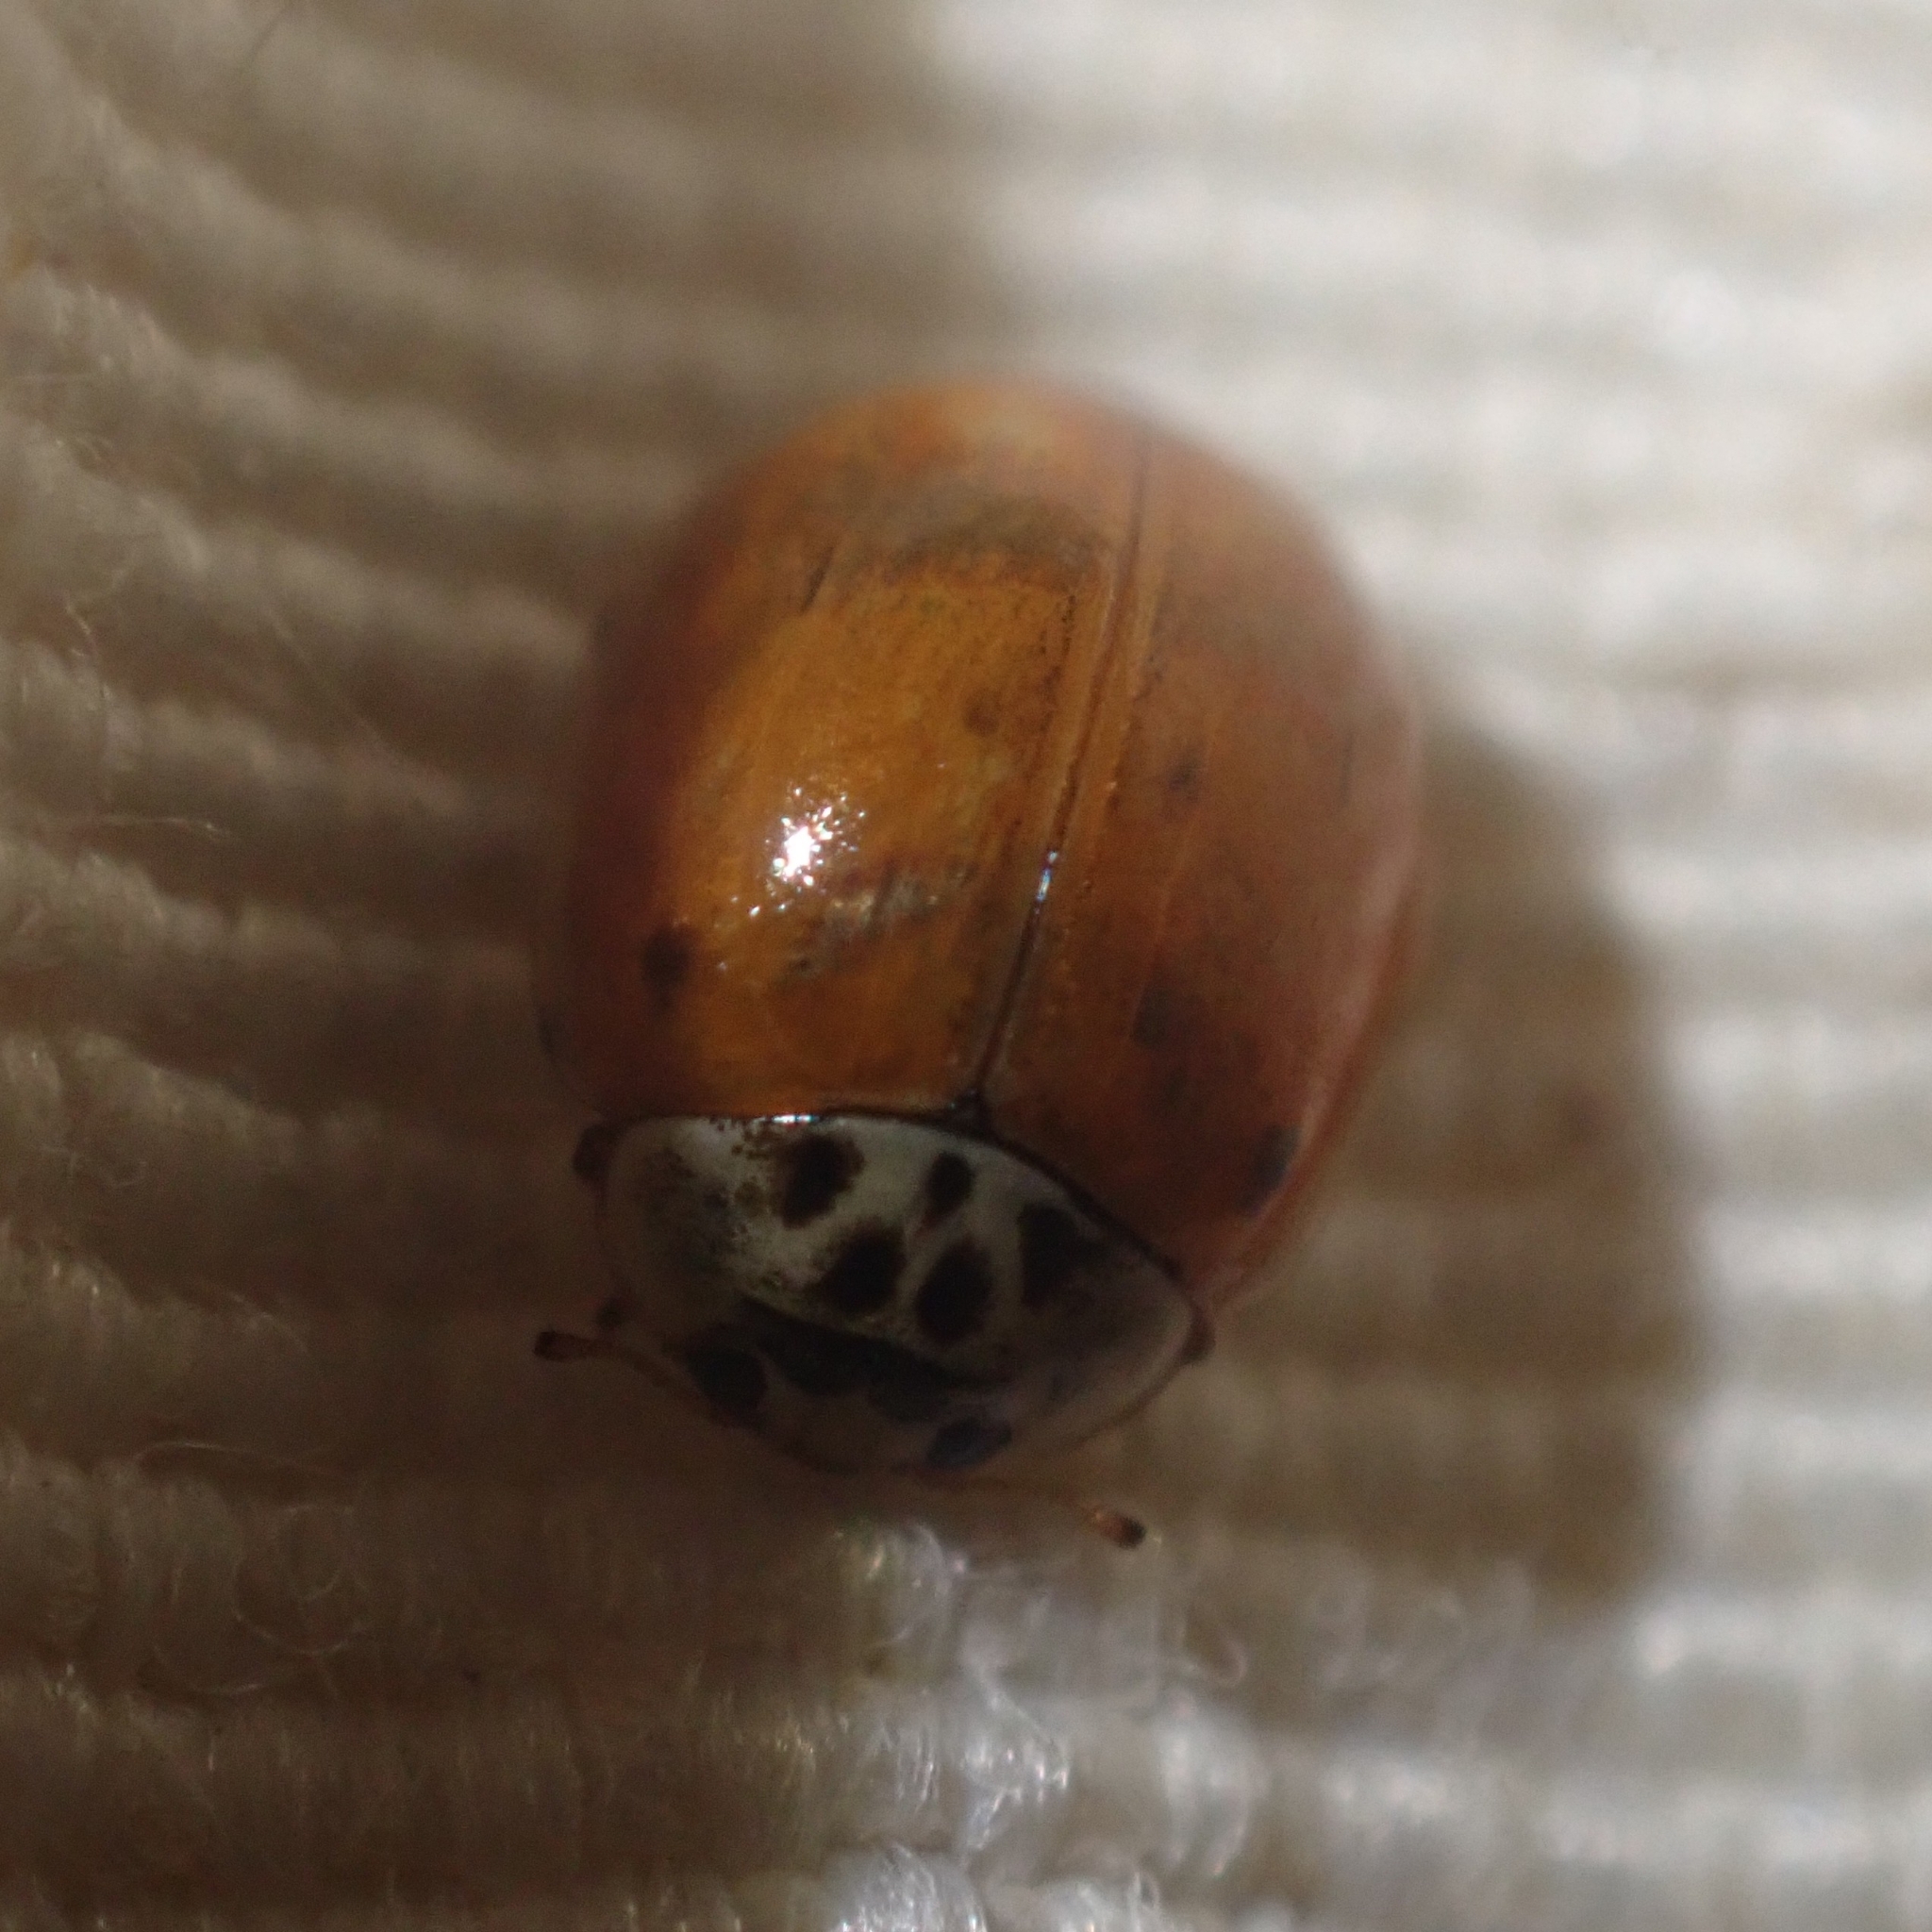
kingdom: Animalia
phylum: Arthropoda
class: Insecta
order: Coleoptera
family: Coccinellidae
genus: Adalia
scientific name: Adalia decempunctata
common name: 10-spot ladybird
